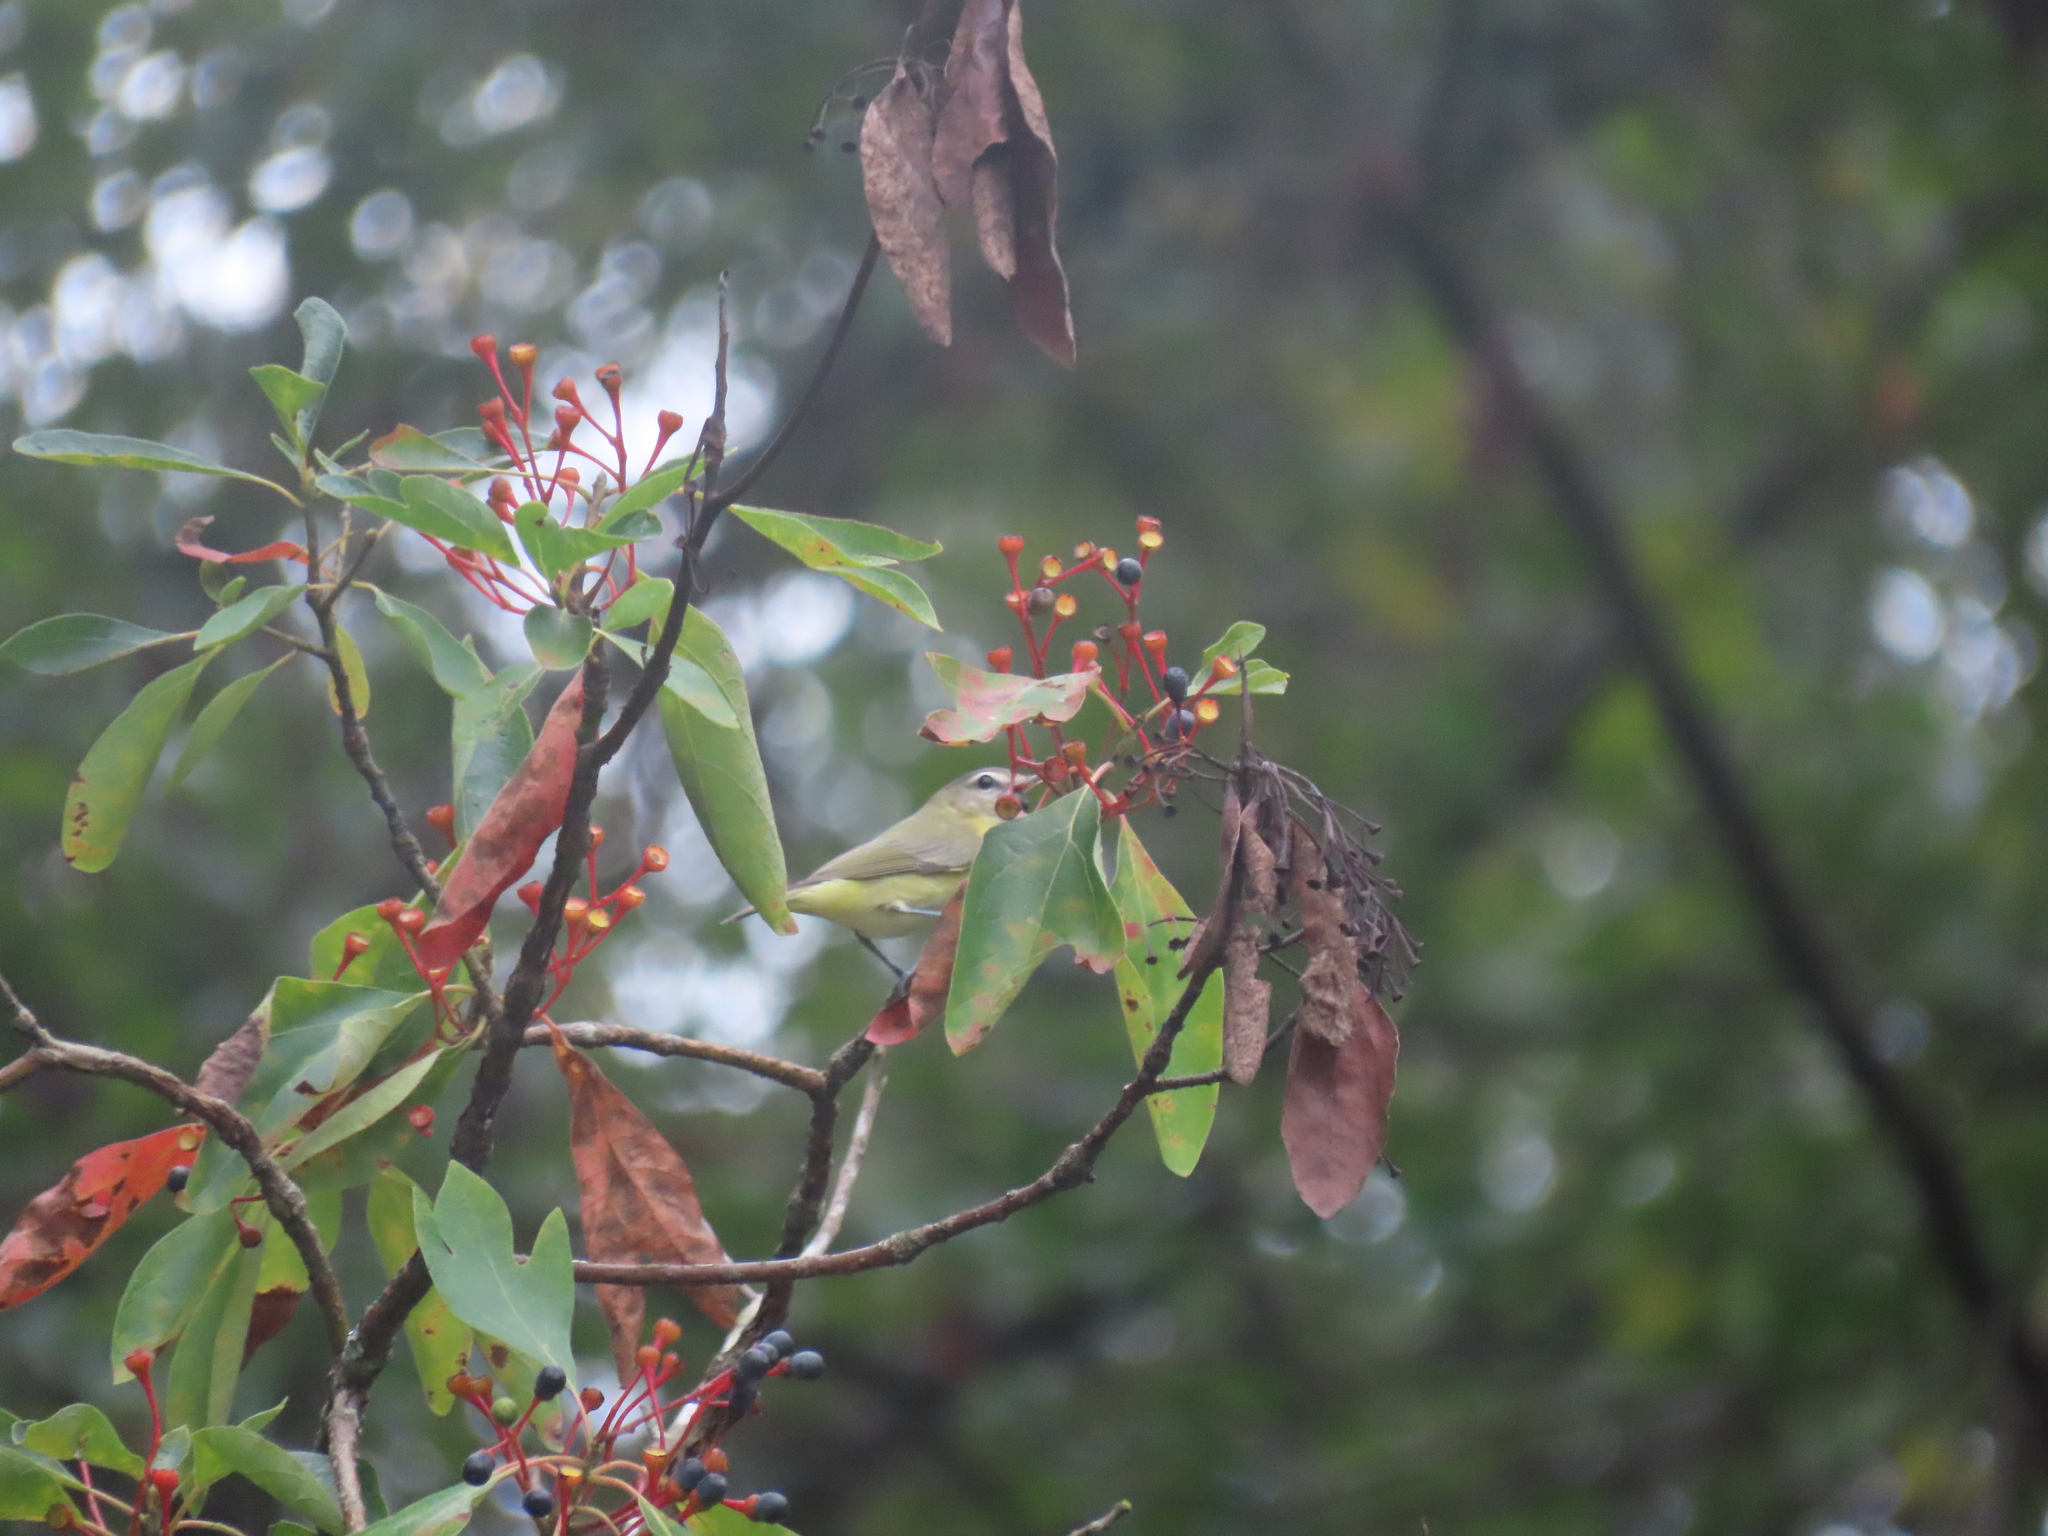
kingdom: Animalia
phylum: Chordata
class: Aves
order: Passeriformes
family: Vireonidae
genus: Vireo
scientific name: Vireo olivaceus
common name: Red-eyed vireo
